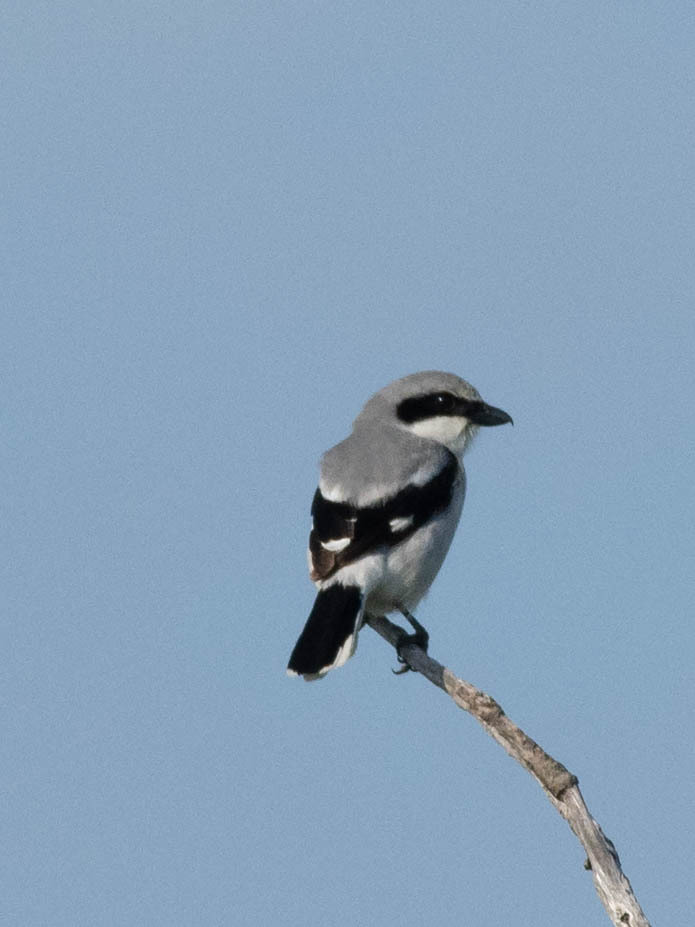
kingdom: Animalia
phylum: Chordata
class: Aves
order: Passeriformes
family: Laniidae
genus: Lanius
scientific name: Lanius ludovicianus
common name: Loggerhead shrike
